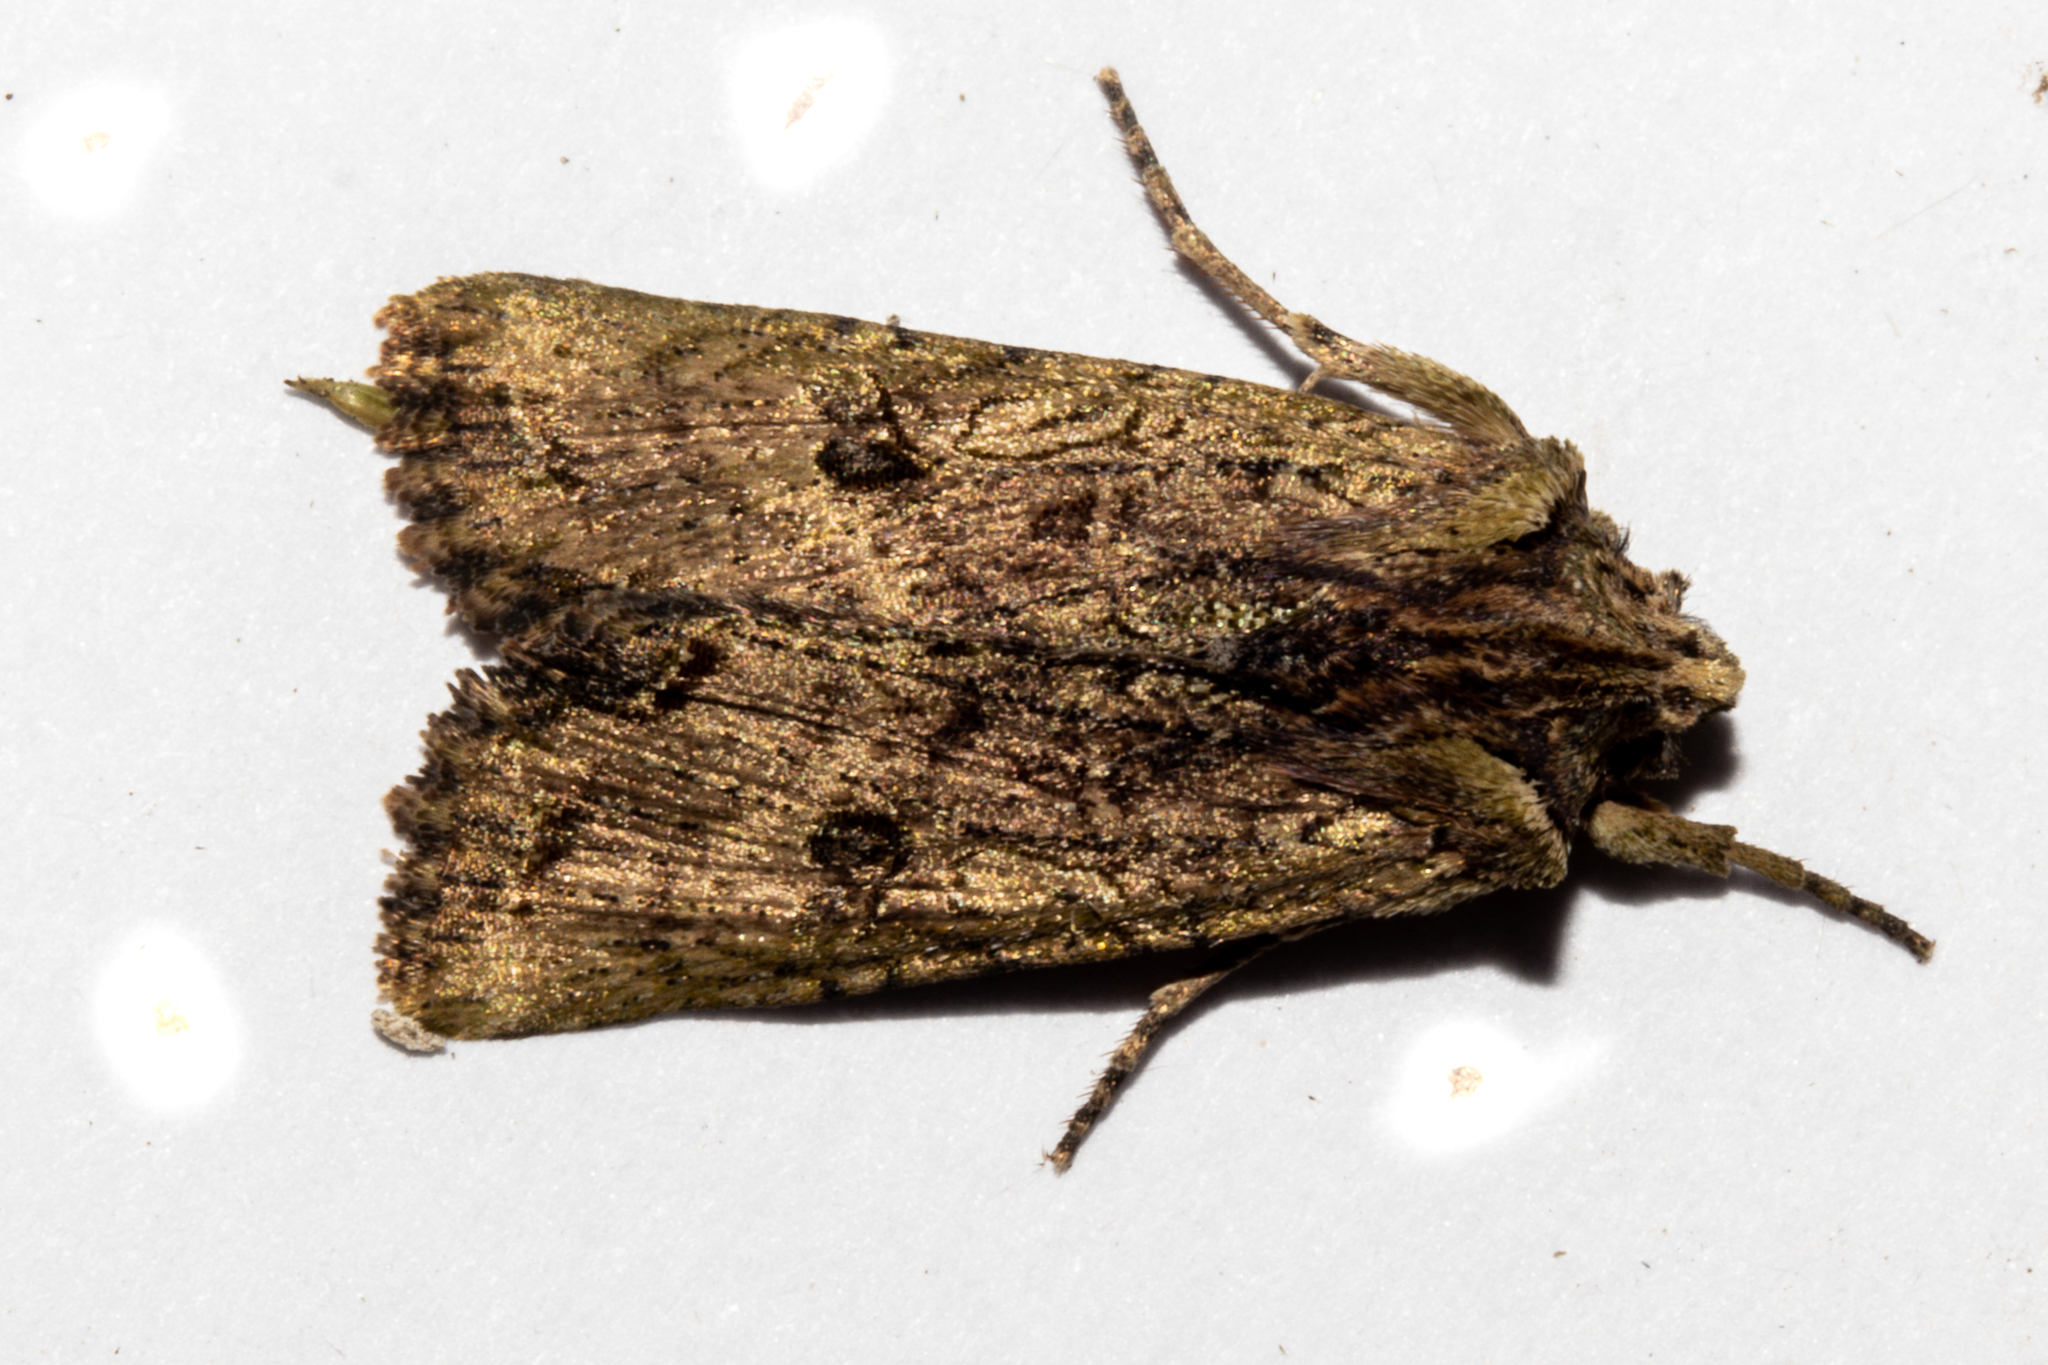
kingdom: Animalia
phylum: Arthropoda
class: Insecta
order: Lepidoptera
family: Noctuidae
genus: Meterana
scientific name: Meterana coeleno
